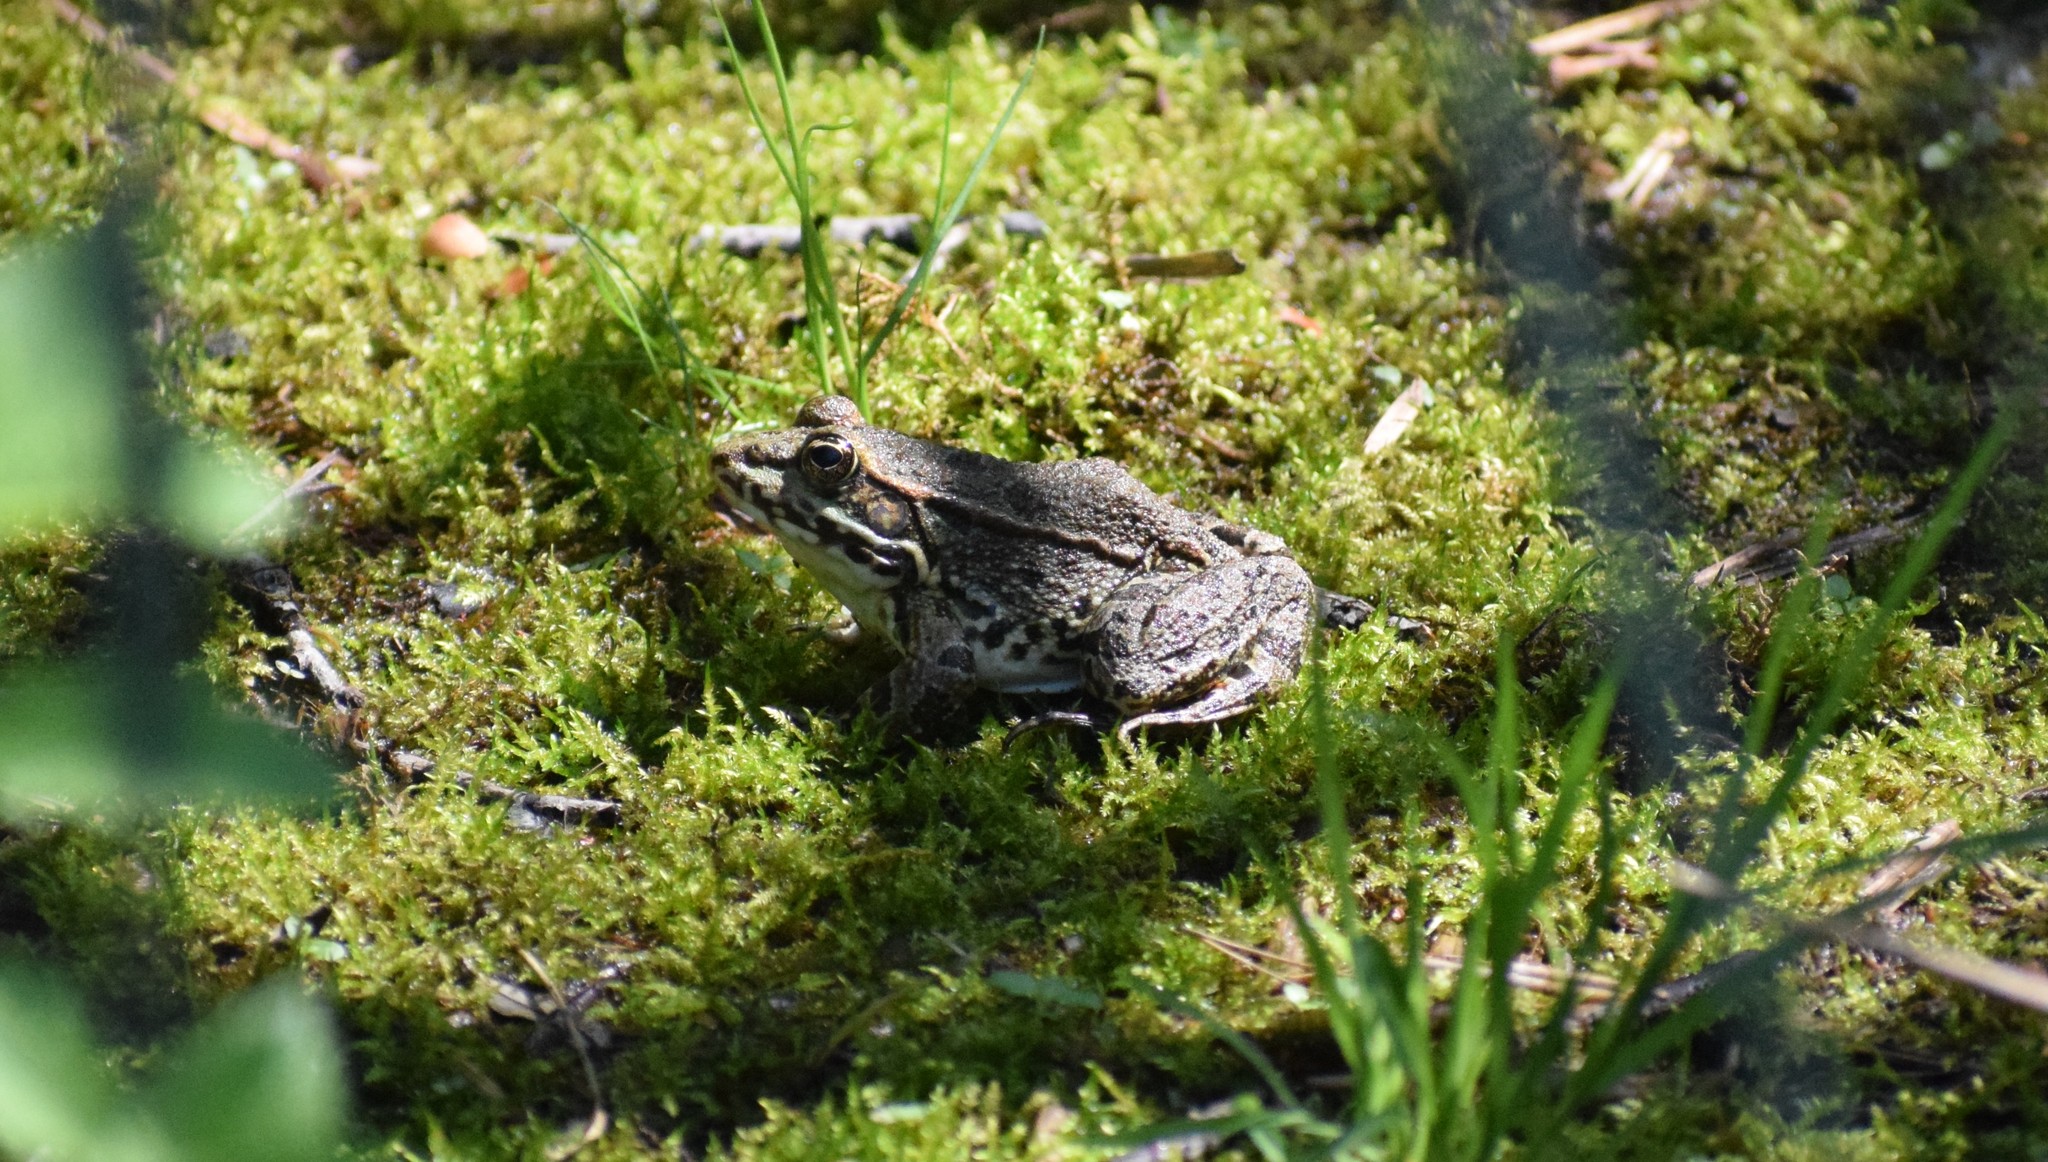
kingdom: Animalia
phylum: Chordata
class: Amphibia
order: Anura
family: Ranidae
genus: Pelophylax
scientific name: Pelophylax
